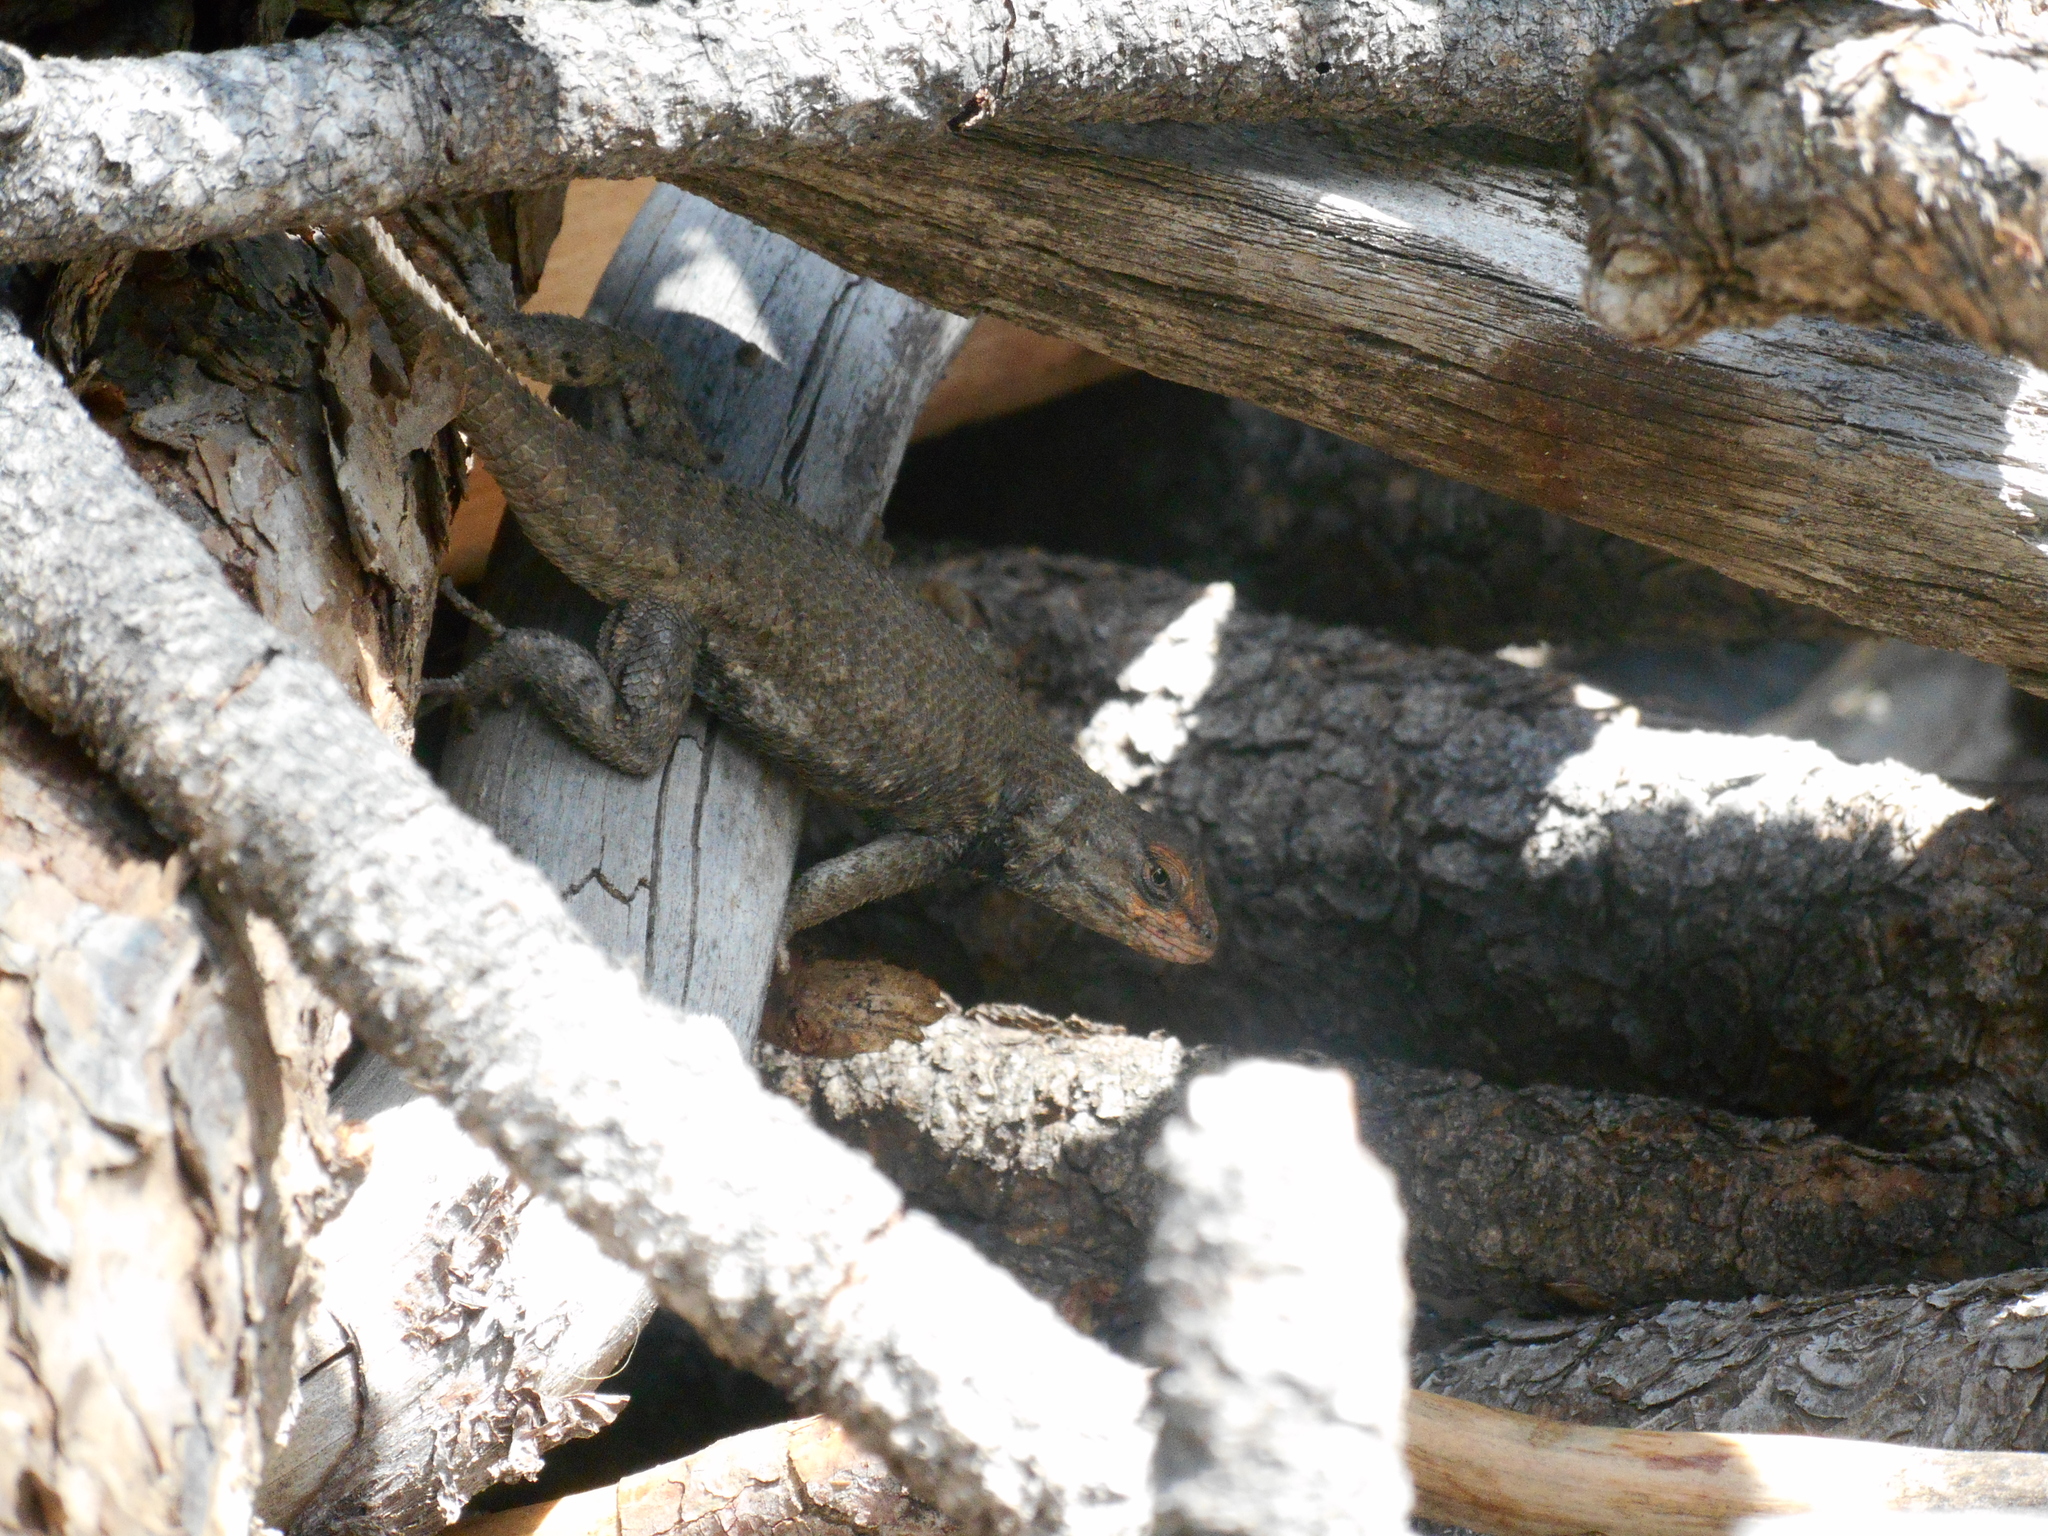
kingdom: Animalia
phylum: Chordata
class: Squamata
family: Phrynosomatidae
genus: Sceloporus
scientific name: Sceloporus consobrinus
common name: Southern prairie lizard
